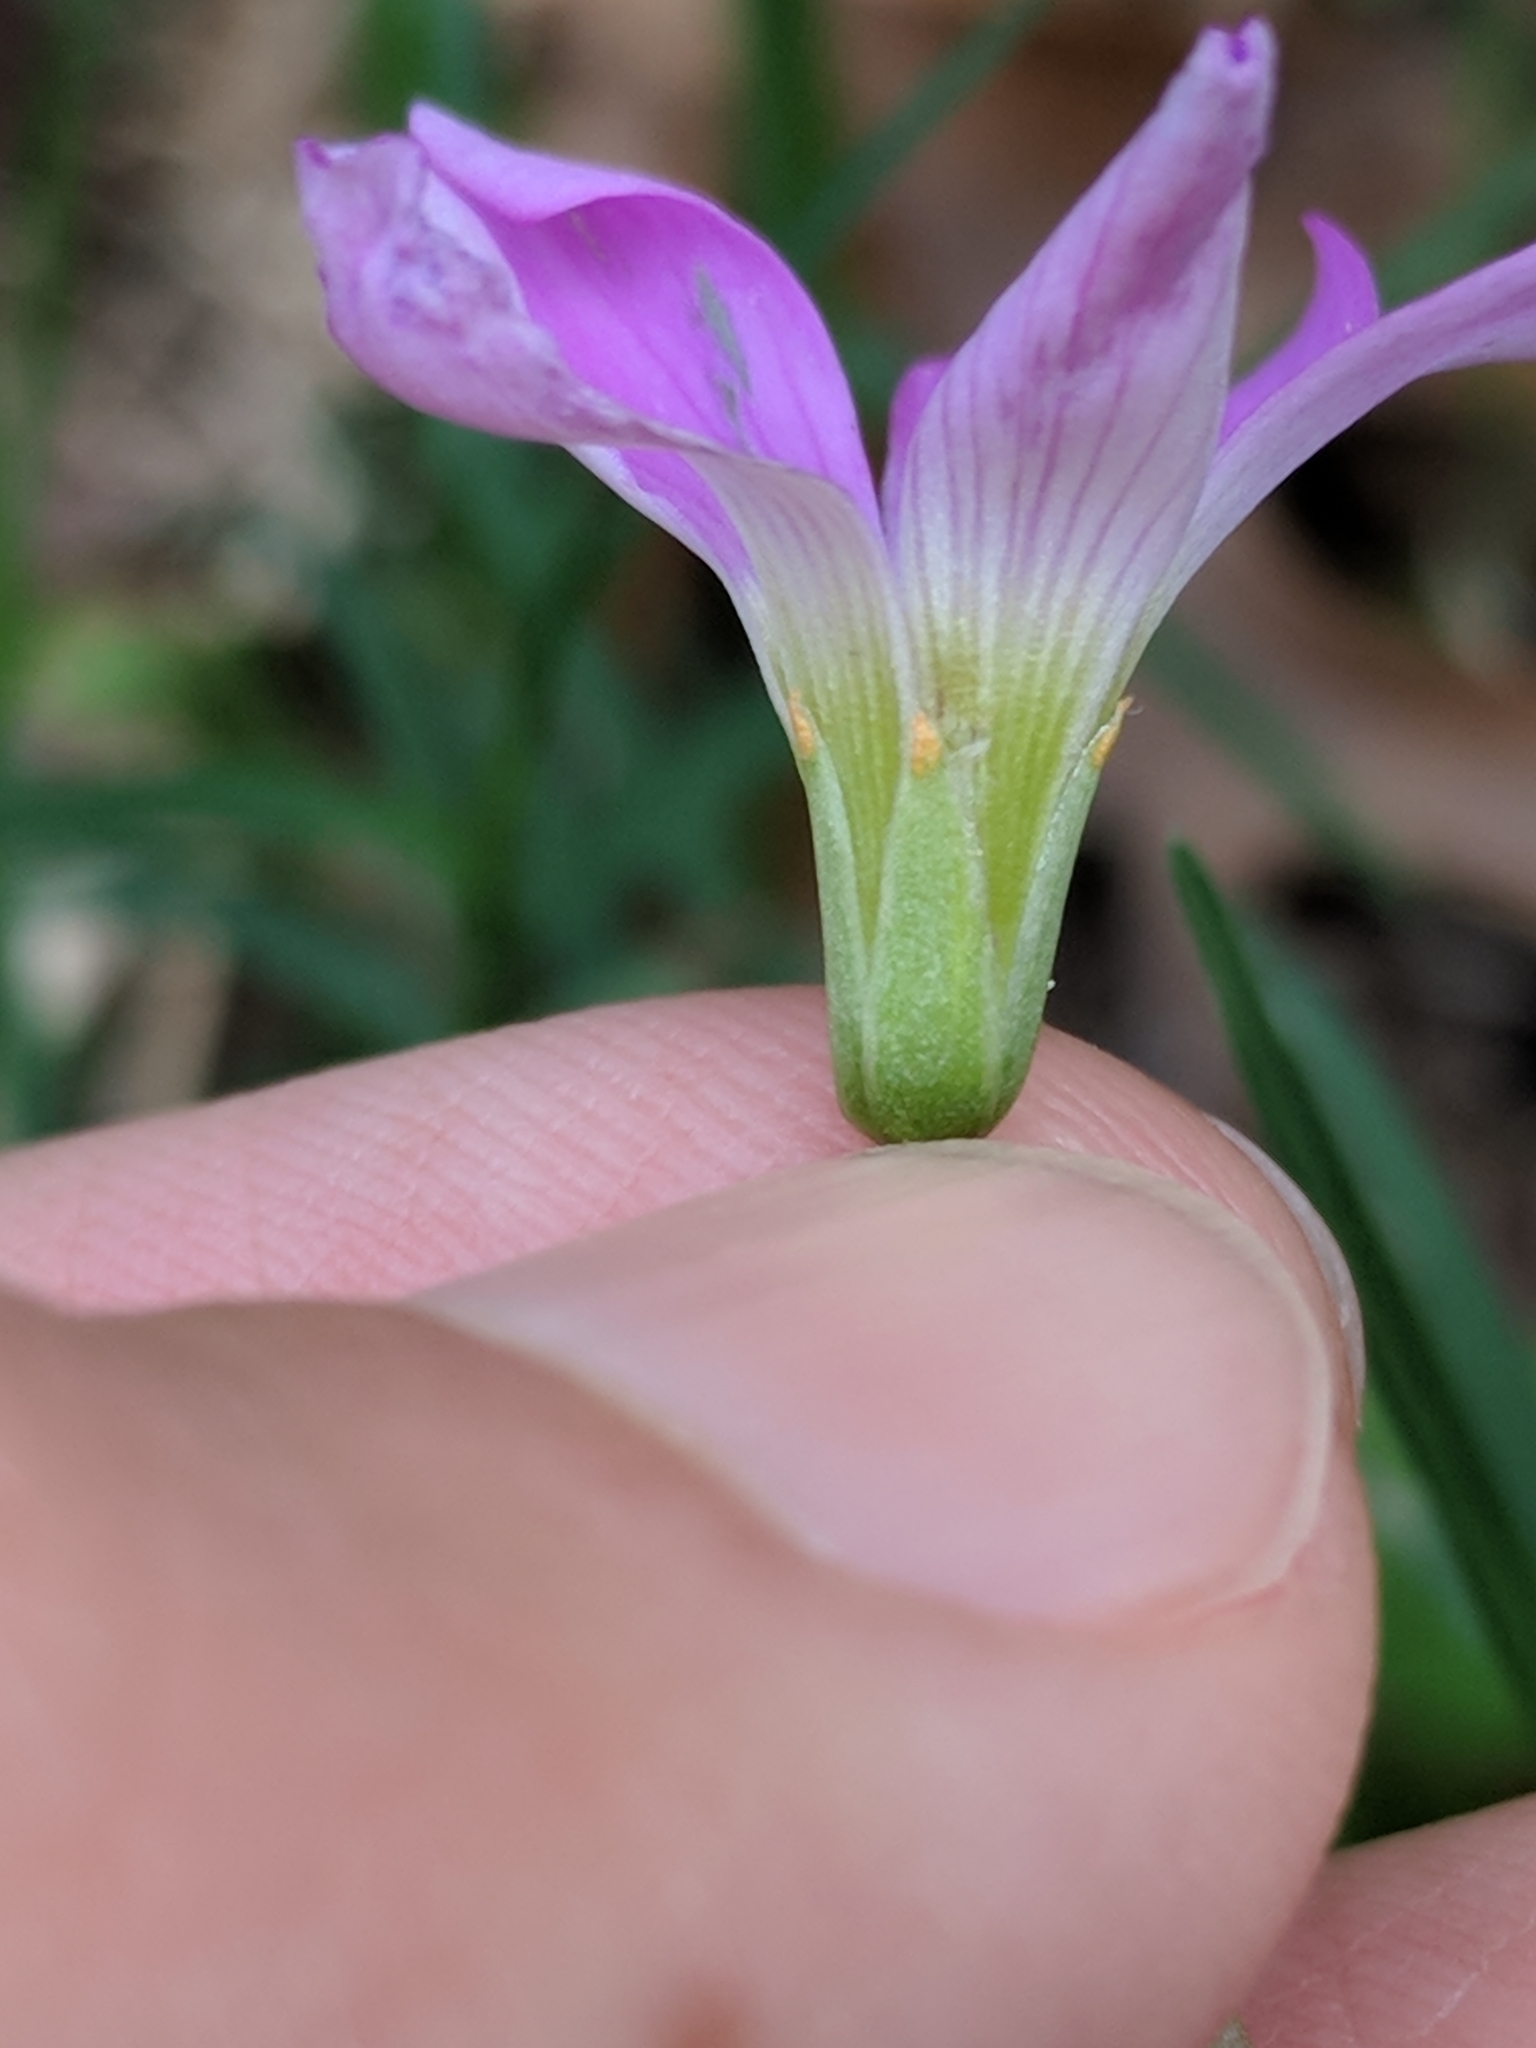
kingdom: Plantae
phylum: Tracheophyta
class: Magnoliopsida
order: Oxalidales
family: Oxalidaceae
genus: Oxalis
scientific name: Oxalis drummondii
